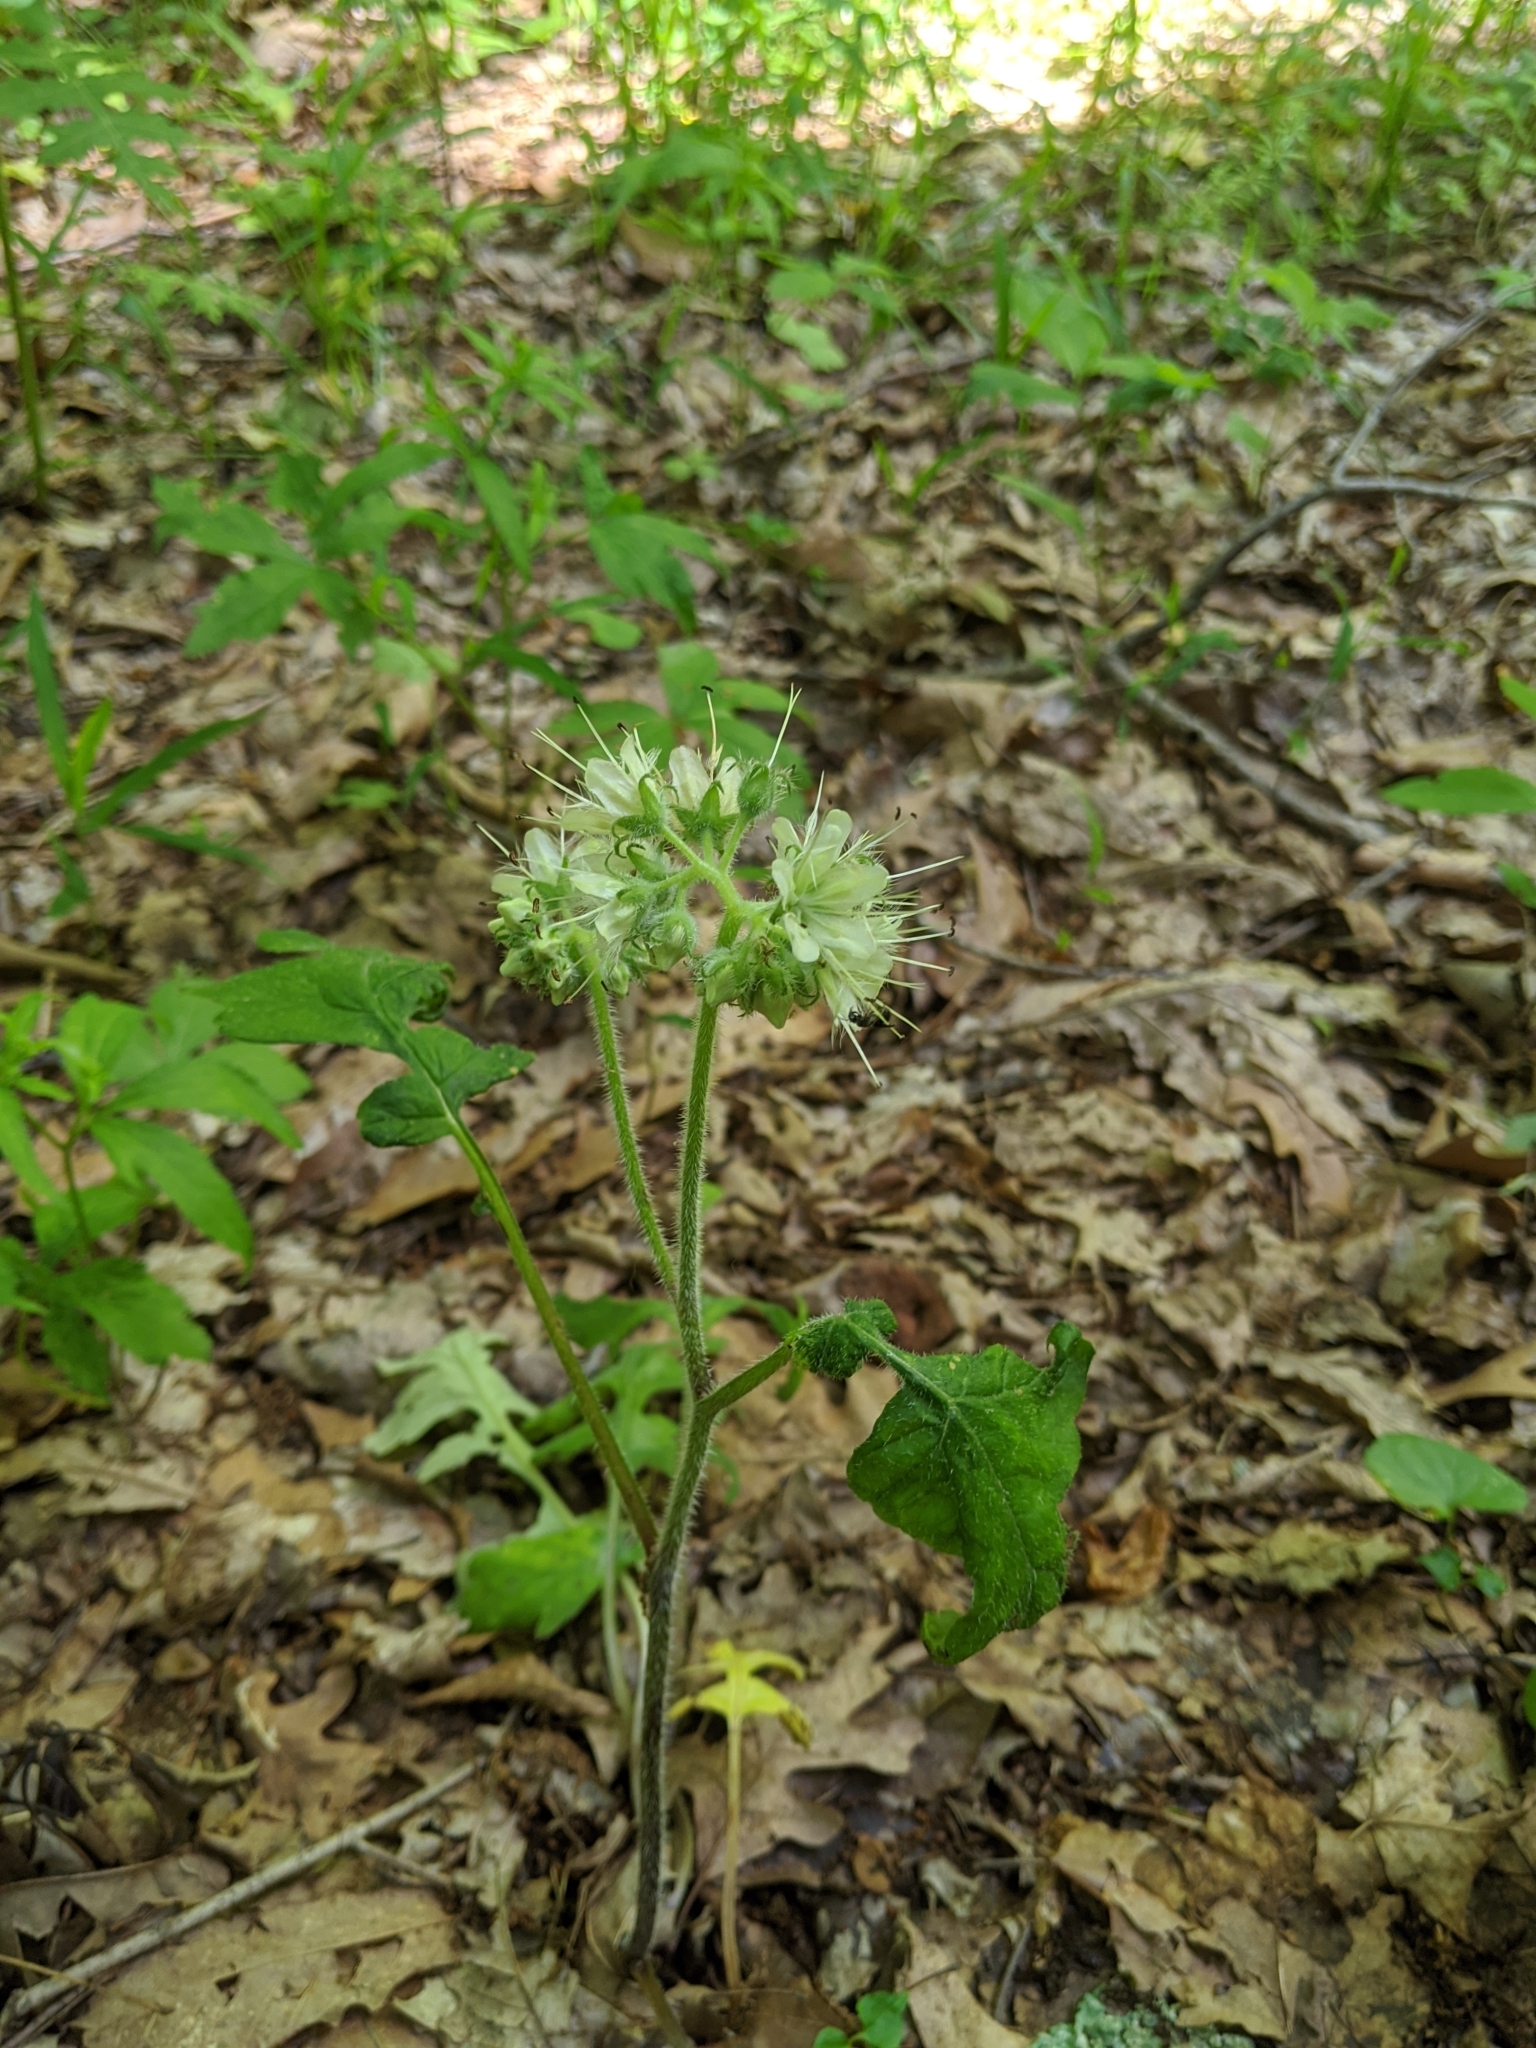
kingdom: Plantae
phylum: Tracheophyta
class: Magnoliopsida
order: Boraginales
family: Hydrophyllaceae
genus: Hydrophyllum
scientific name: Hydrophyllum macrophyllum
